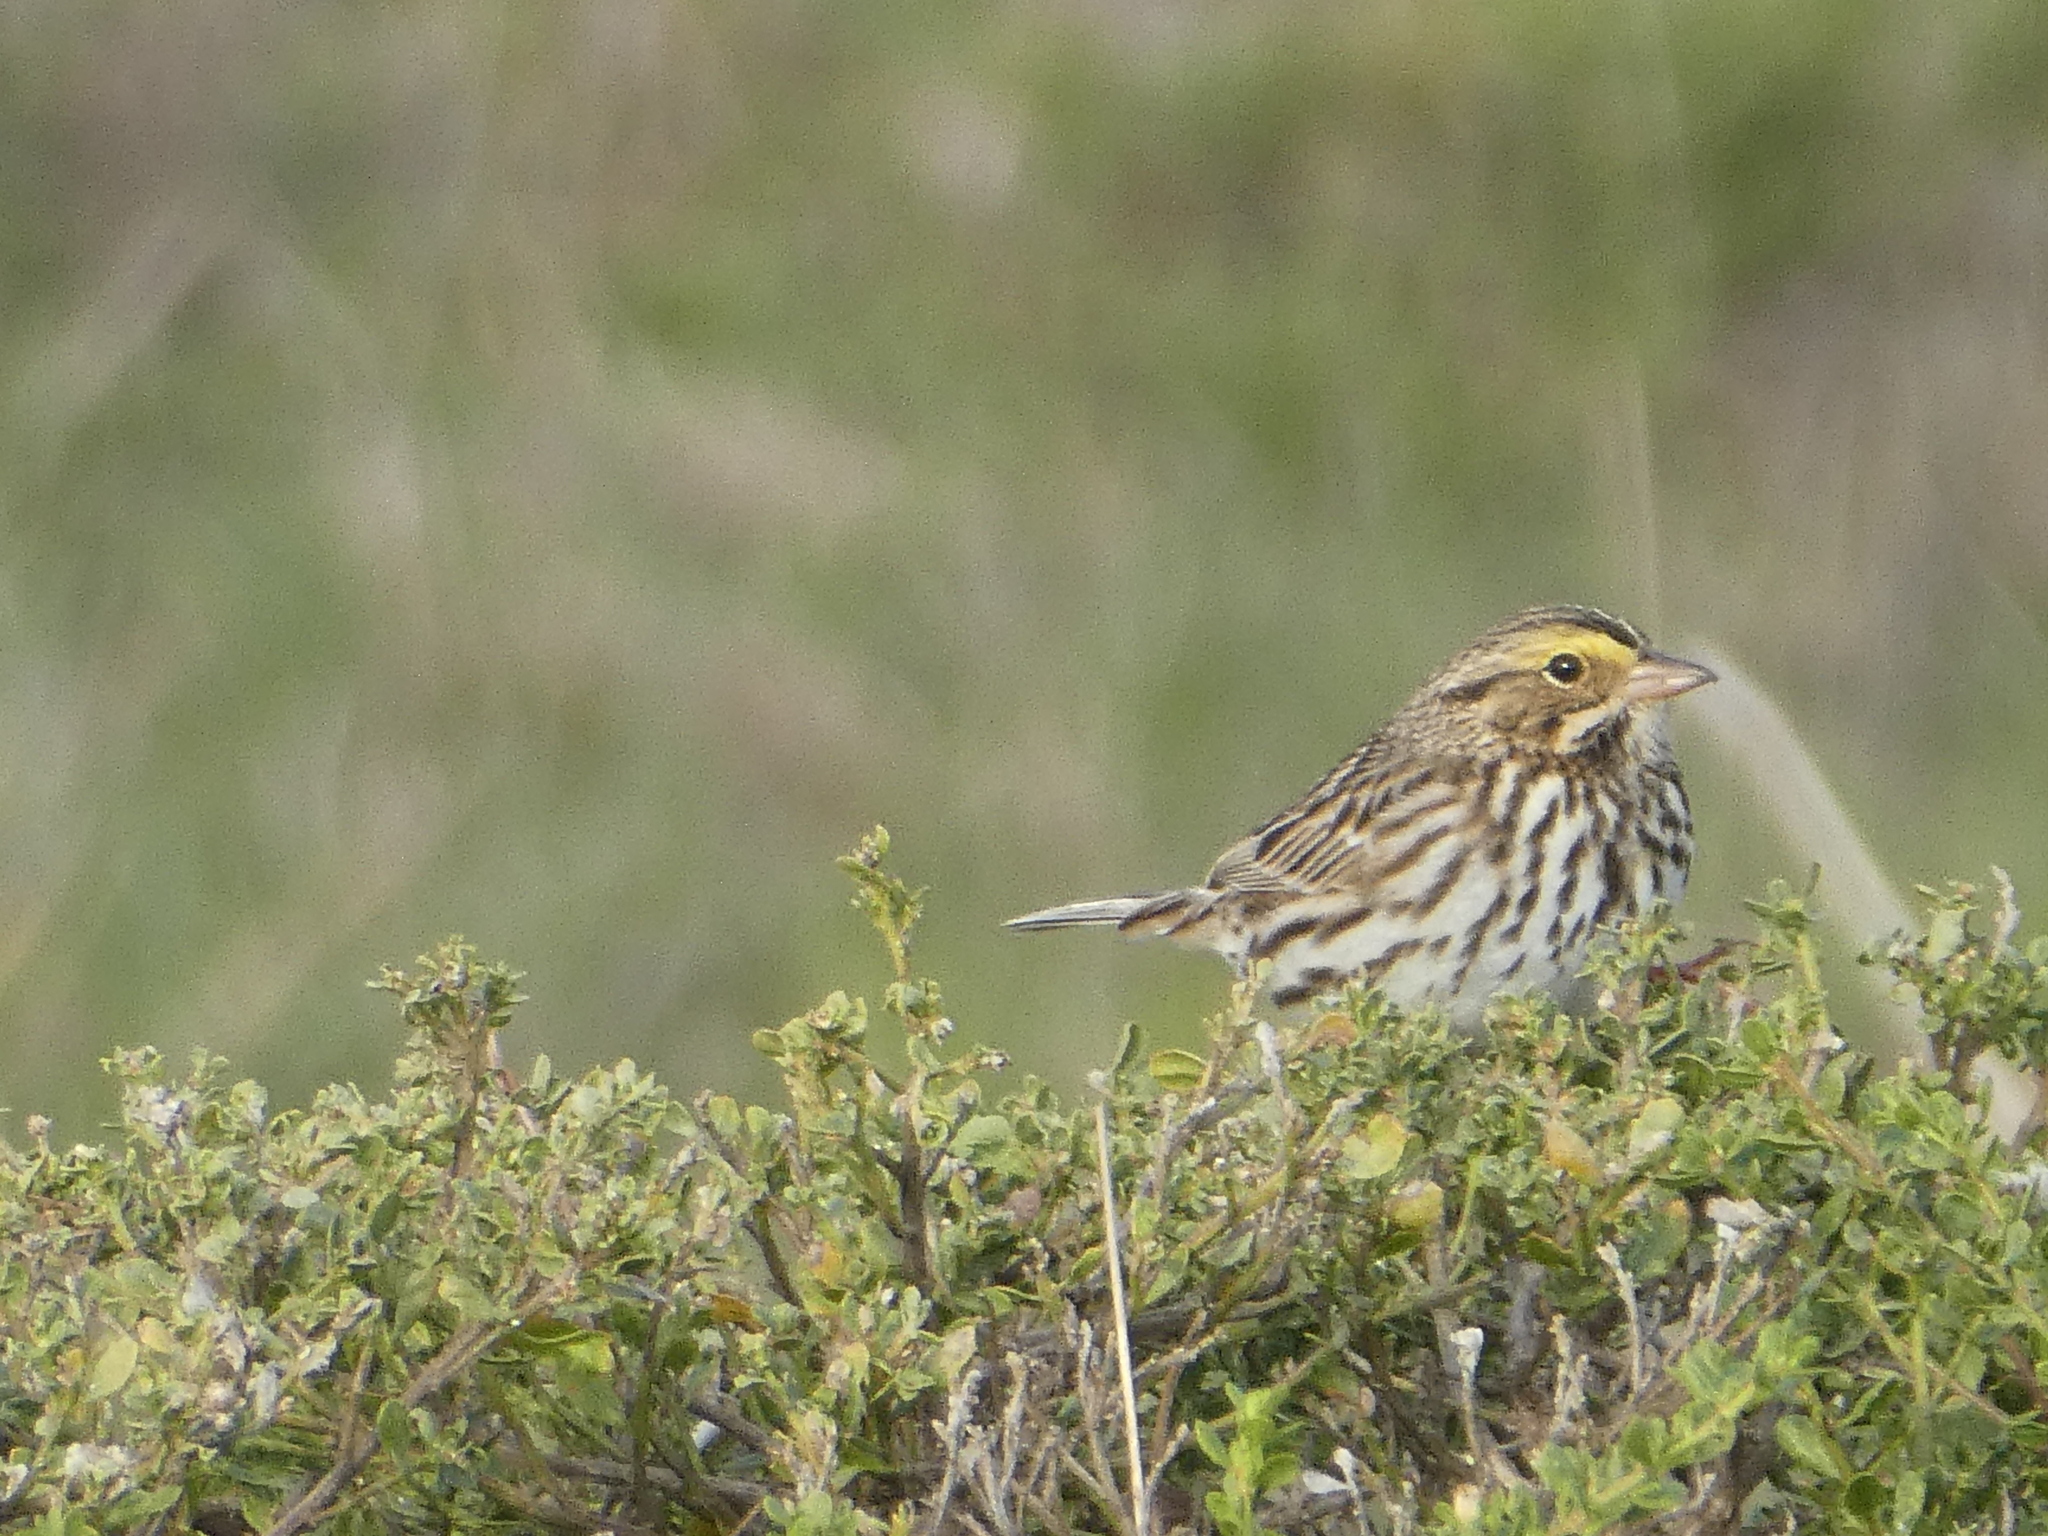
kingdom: Animalia
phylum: Chordata
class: Aves
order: Passeriformes
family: Passerellidae
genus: Passerculus
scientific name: Passerculus sandwichensis
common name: Savannah sparrow
